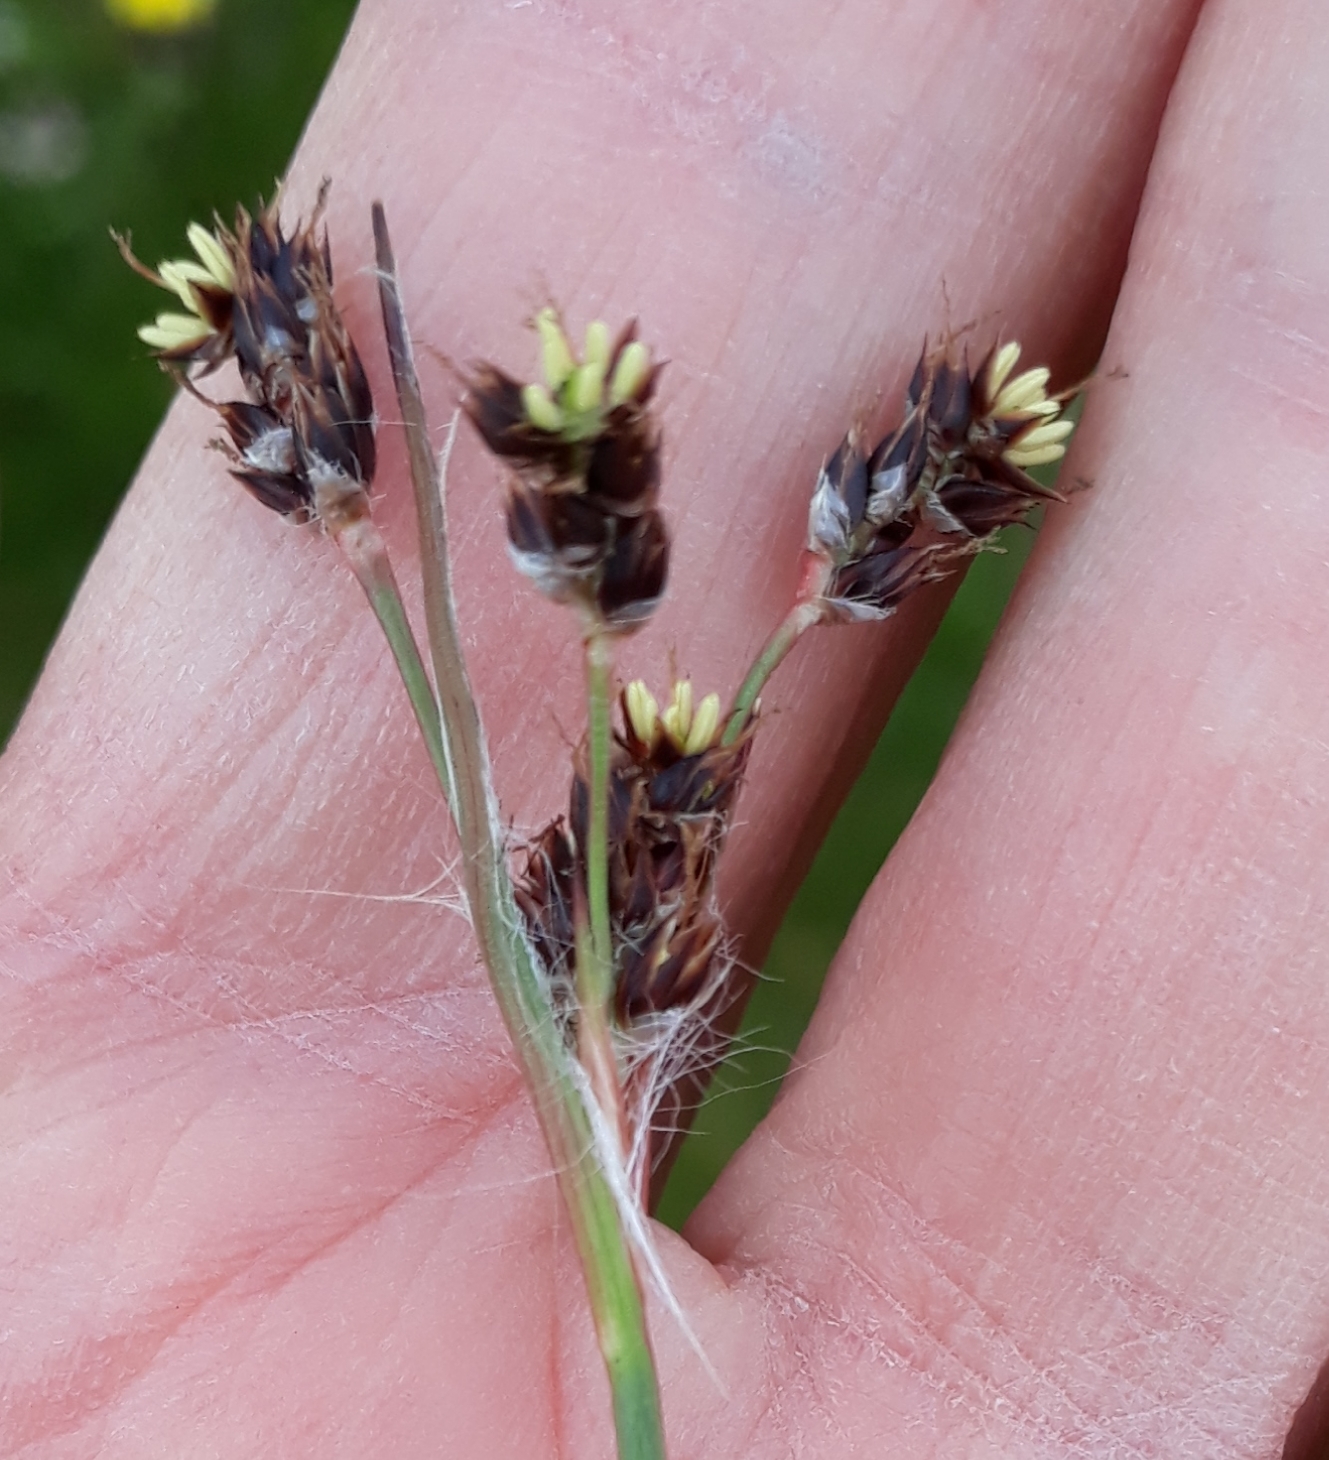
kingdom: Plantae
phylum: Tracheophyta
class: Liliopsida
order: Poales
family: Juncaceae
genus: Luzula
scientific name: Luzula campestris
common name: Field wood-rush
